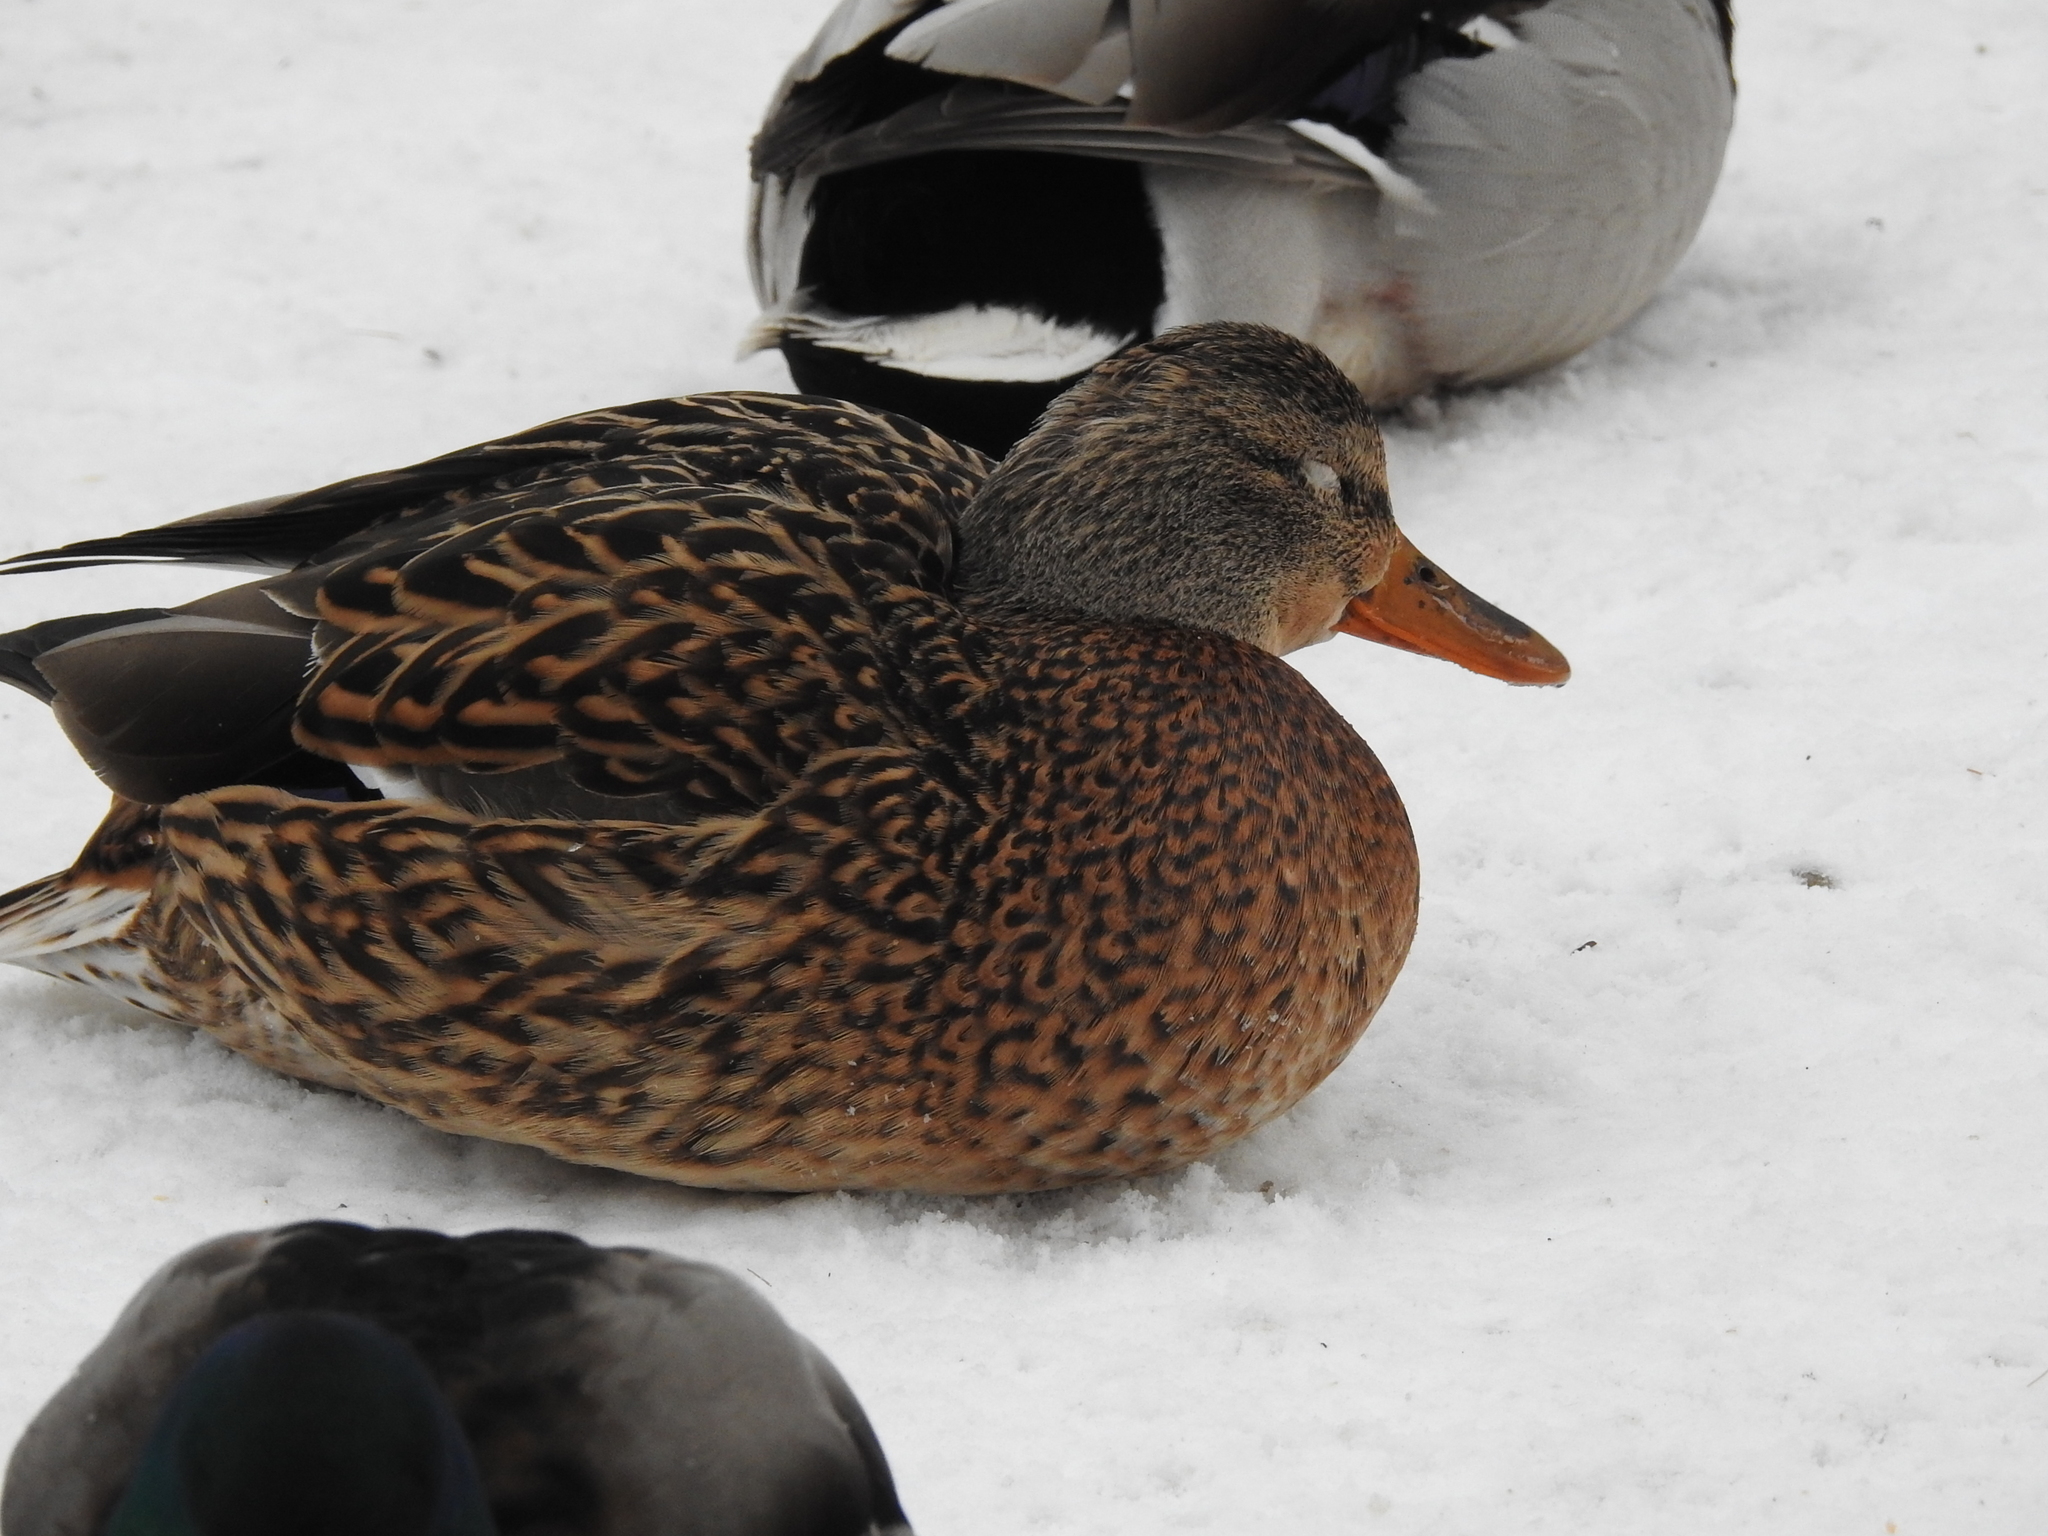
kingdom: Animalia
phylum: Chordata
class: Aves
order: Anseriformes
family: Anatidae
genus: Anas
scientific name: Anas platyrhynchos
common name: Mallard
